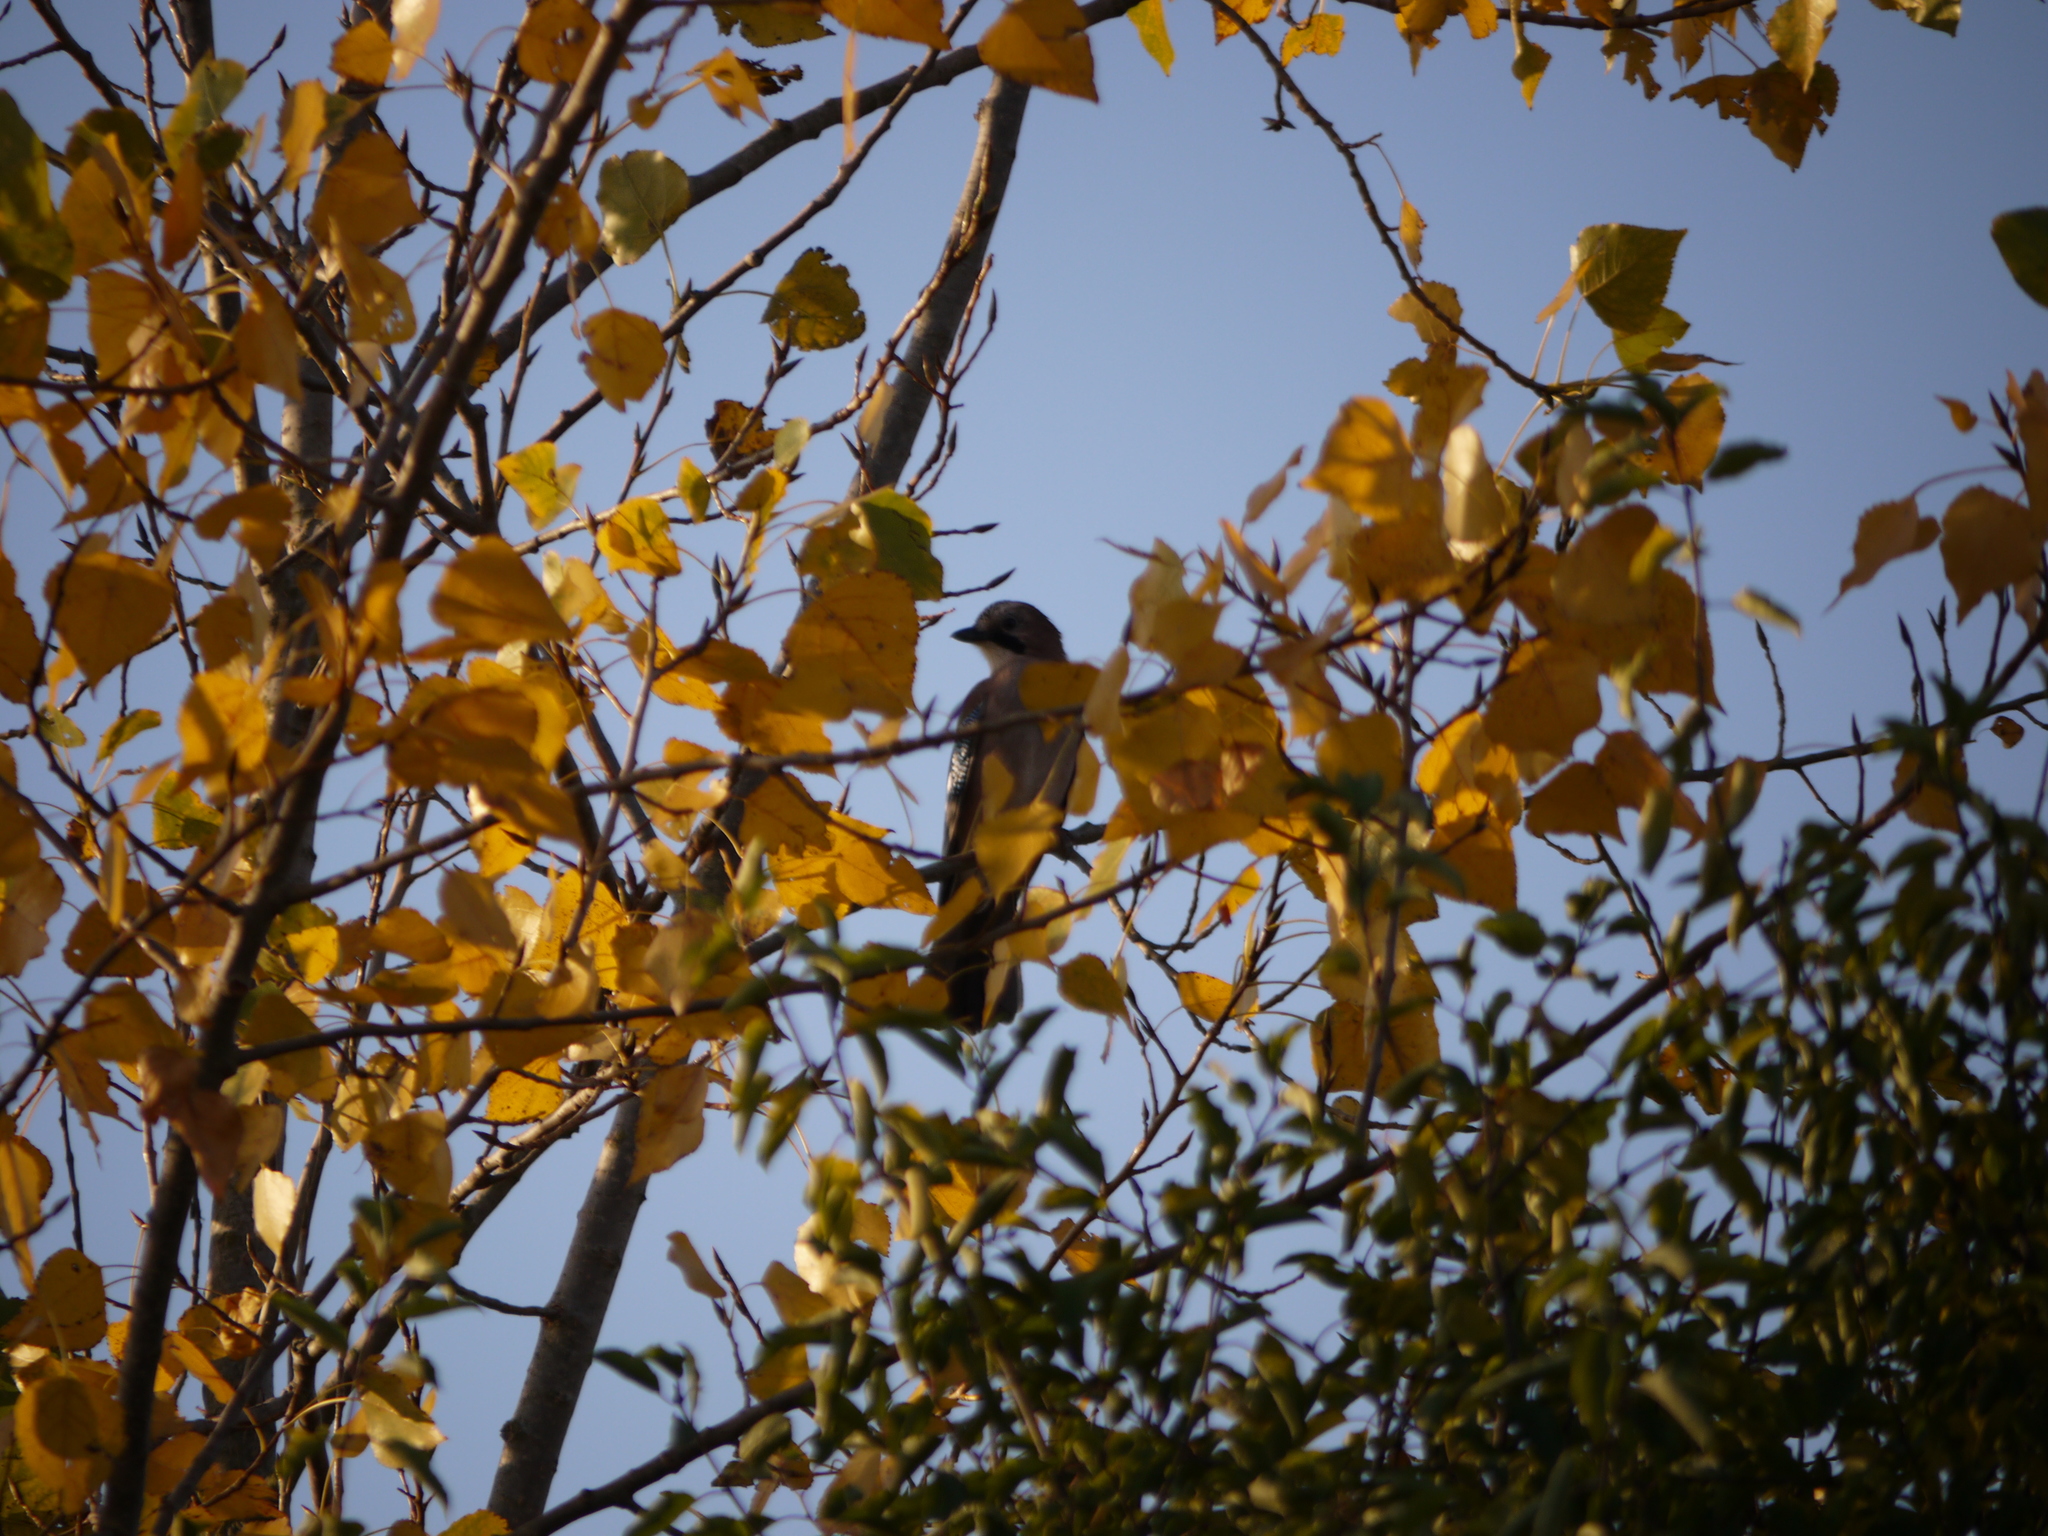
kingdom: Animalia
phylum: Chordata
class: Aves
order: Passeriformes
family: Corvidae
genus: Garrulus
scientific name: Garrulus glandarius
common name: Eurasian jay
